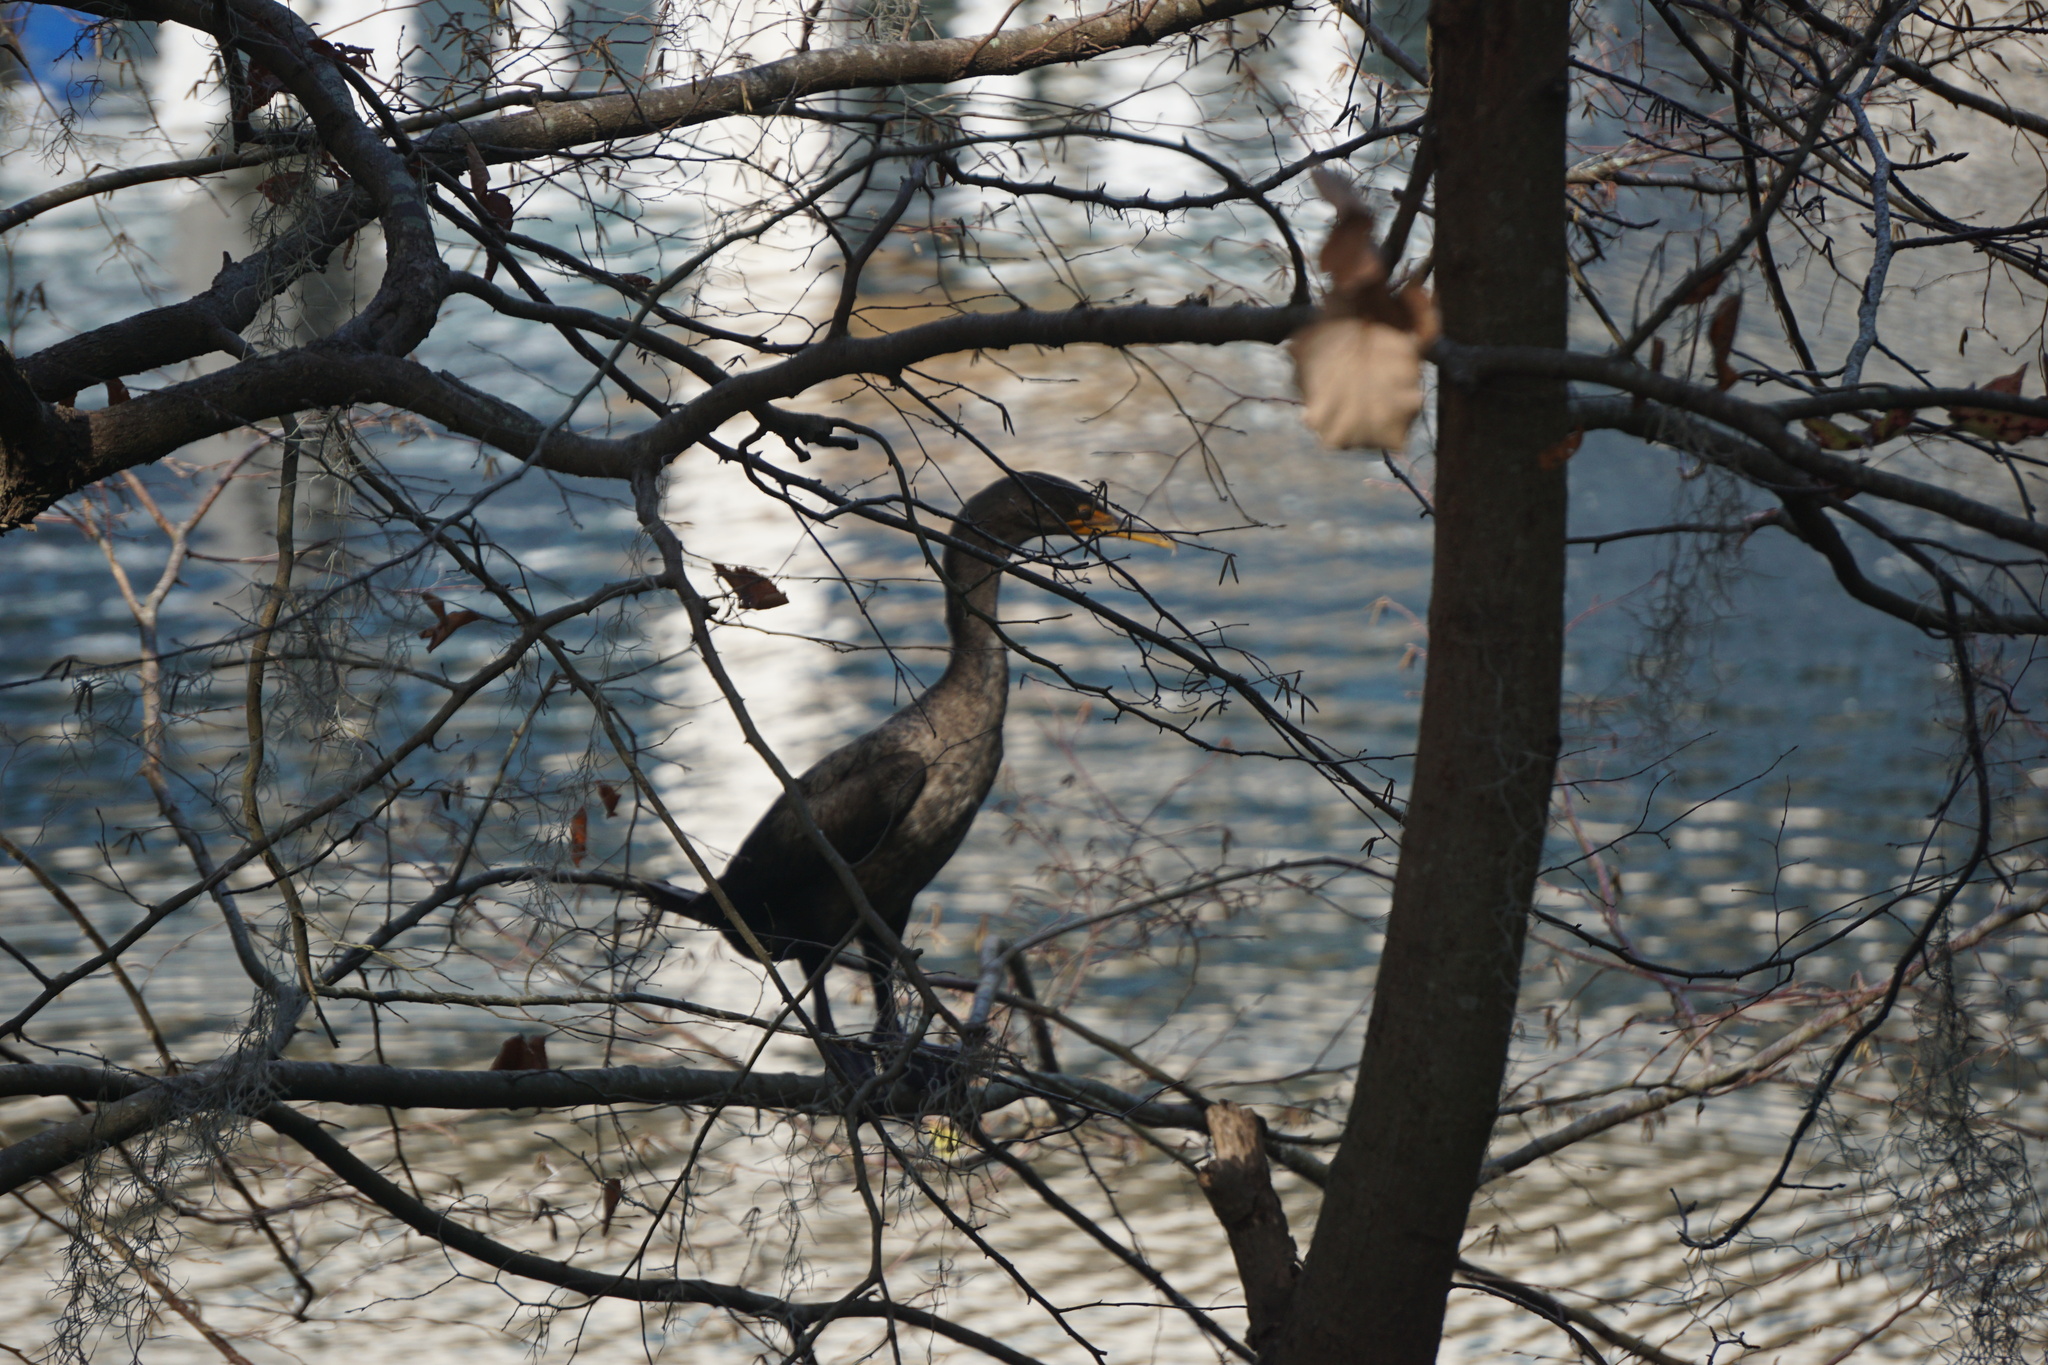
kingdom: Animalia
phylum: Chordata
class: Aves
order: Suliformes
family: Phalacrocoracidae
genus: Phalacrocorax
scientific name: Phalacrocorax auritus
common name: Double-crested cormorant
